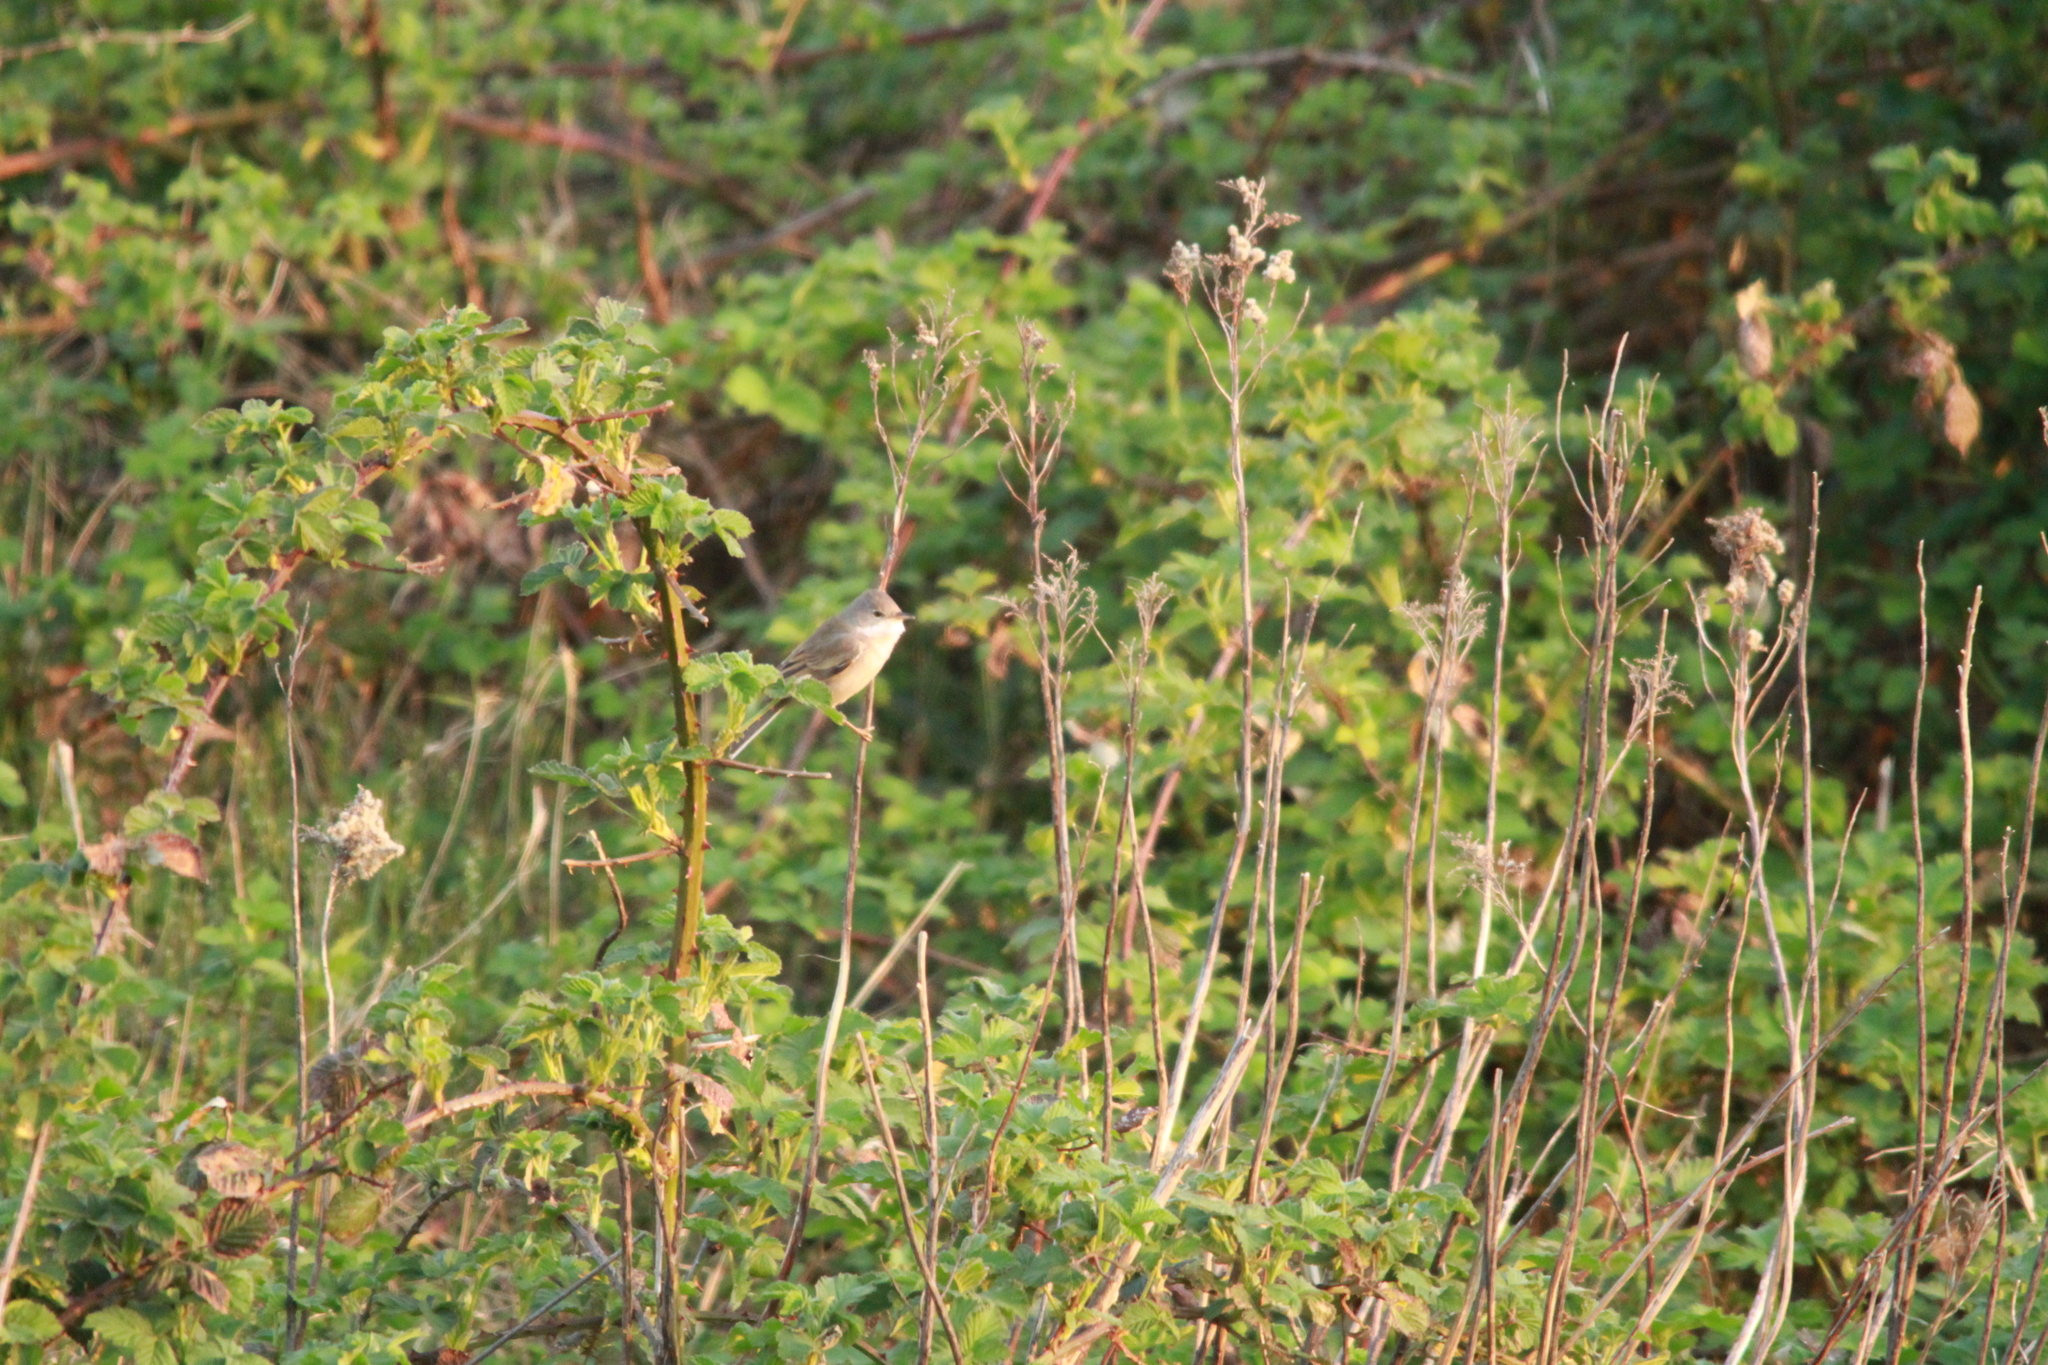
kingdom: Animalia
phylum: Chordata
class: Aves
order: Passeriformes
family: Sylviidae
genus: Sylvia
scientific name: Sylvia communis
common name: Common whitethroat
